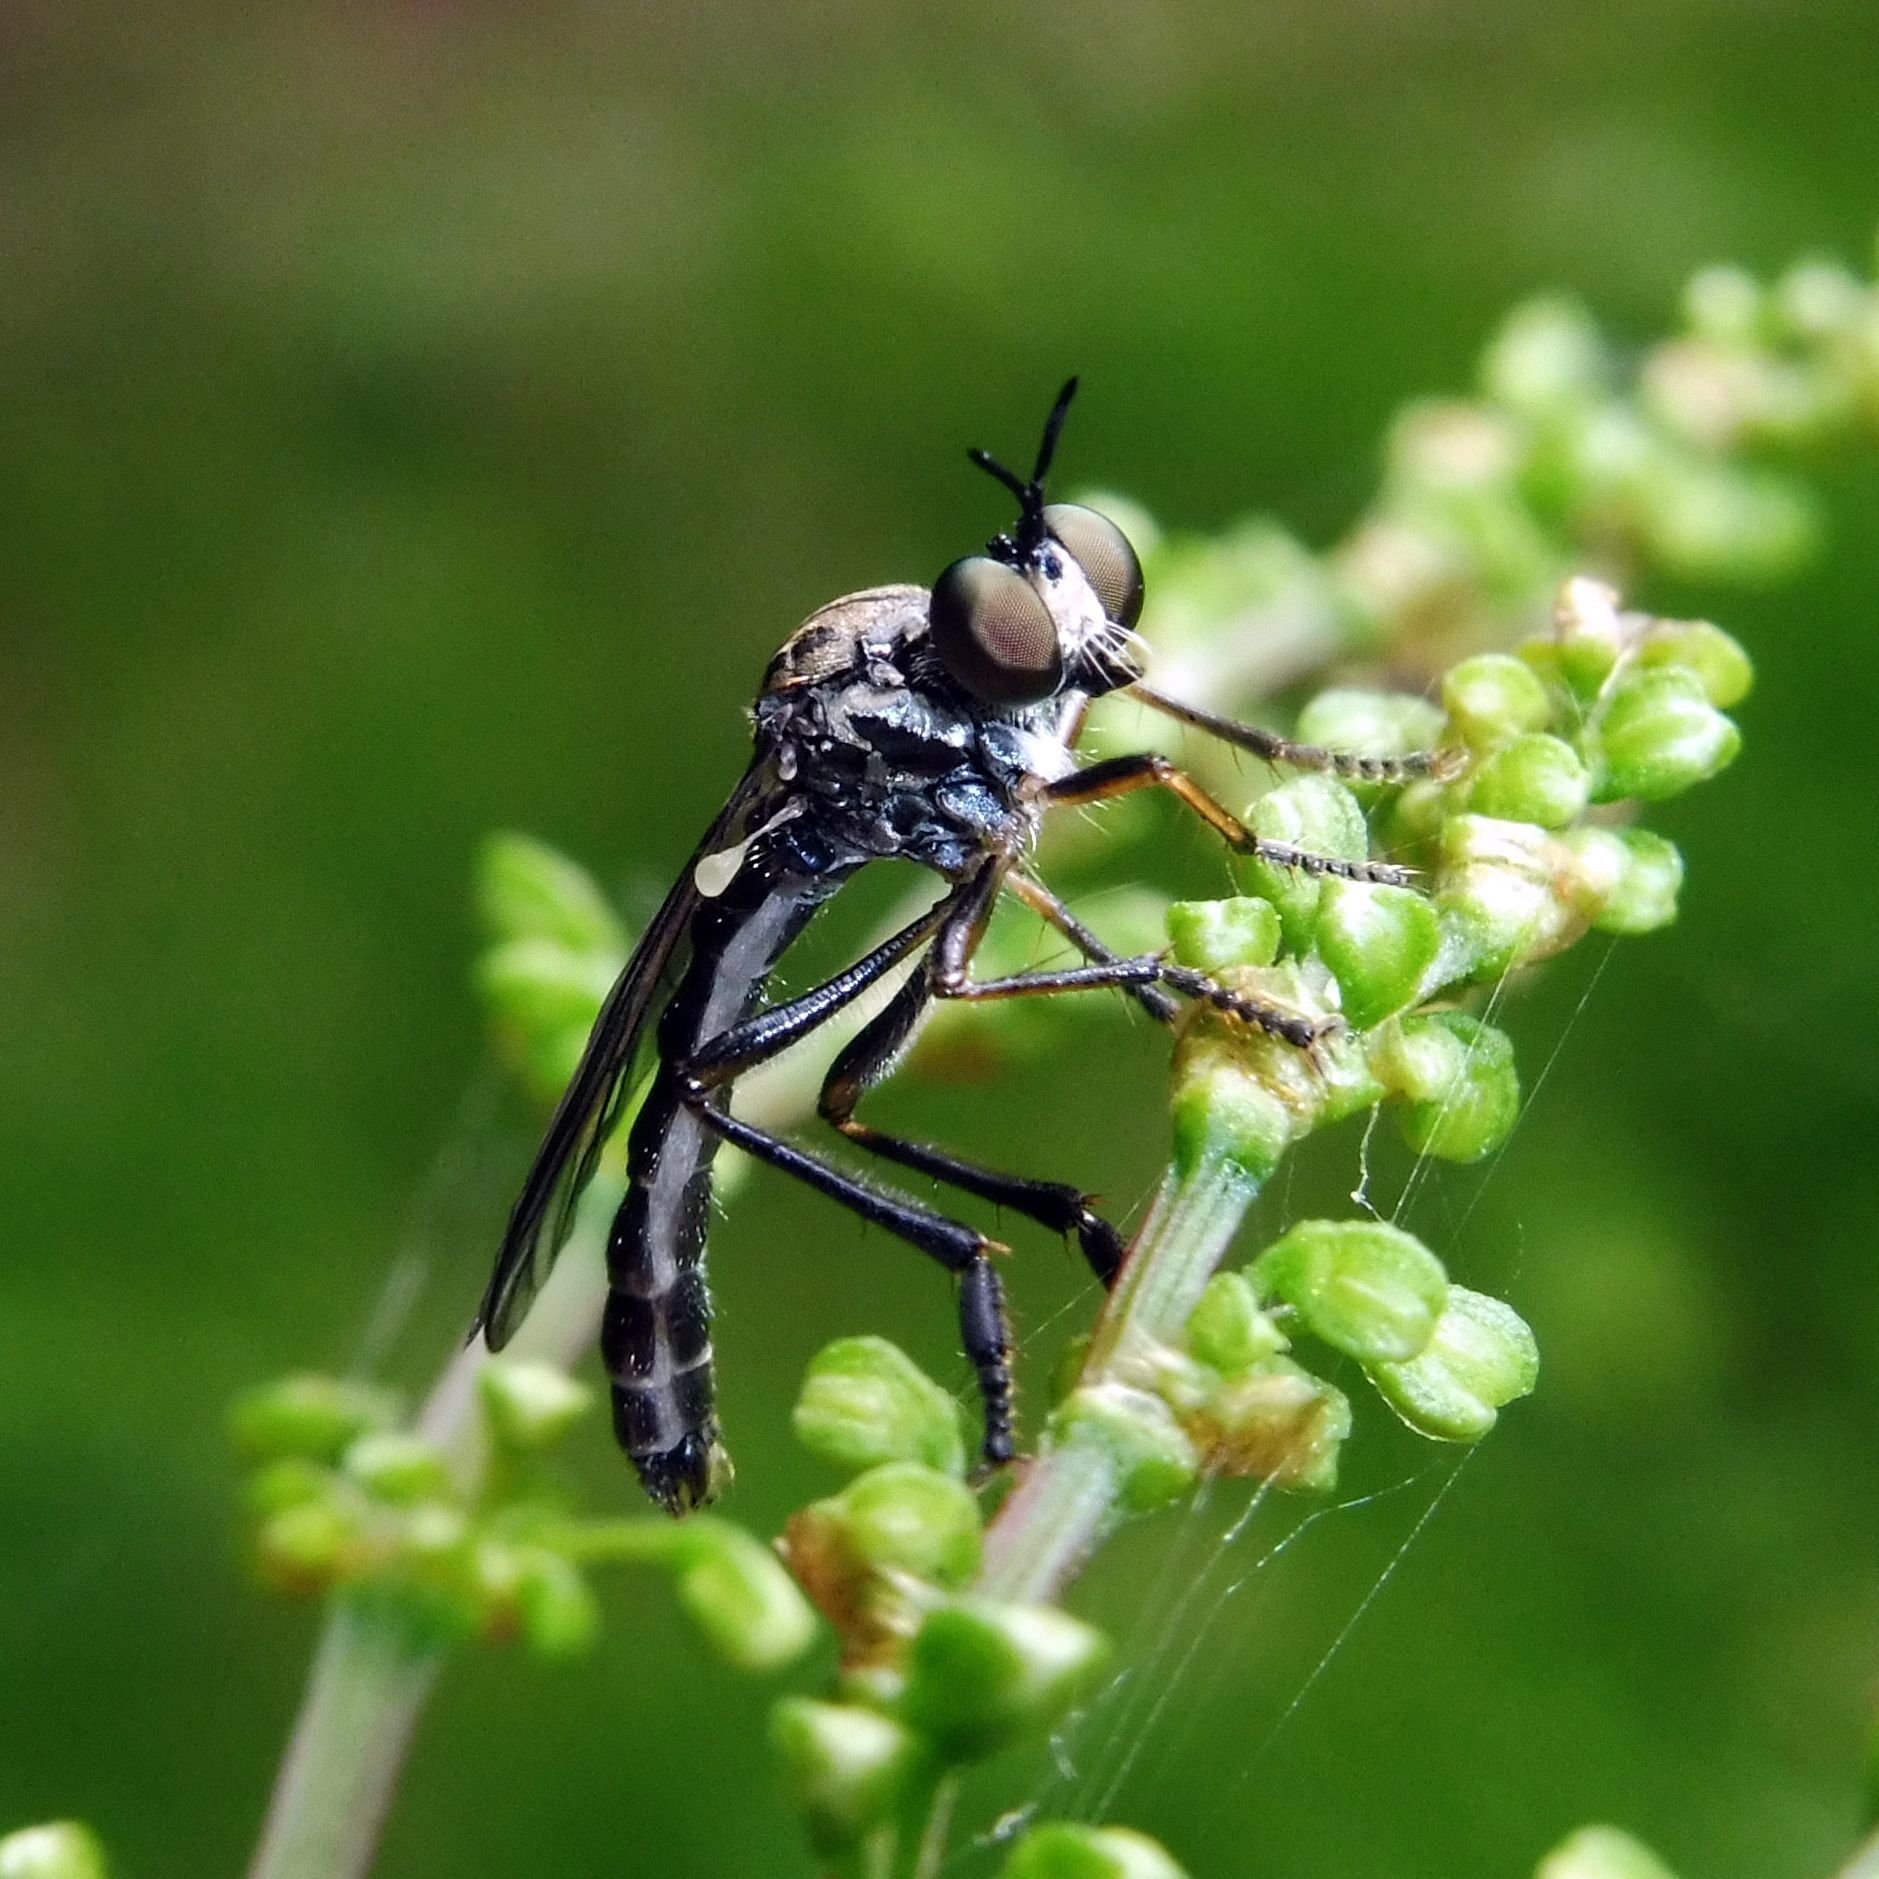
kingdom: Animalia
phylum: Arthropoda
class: Insecta
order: Diptera
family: Asilidae
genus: Dioctria
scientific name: Dioctria hyalipennis
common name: Stripe-legged robberfly
